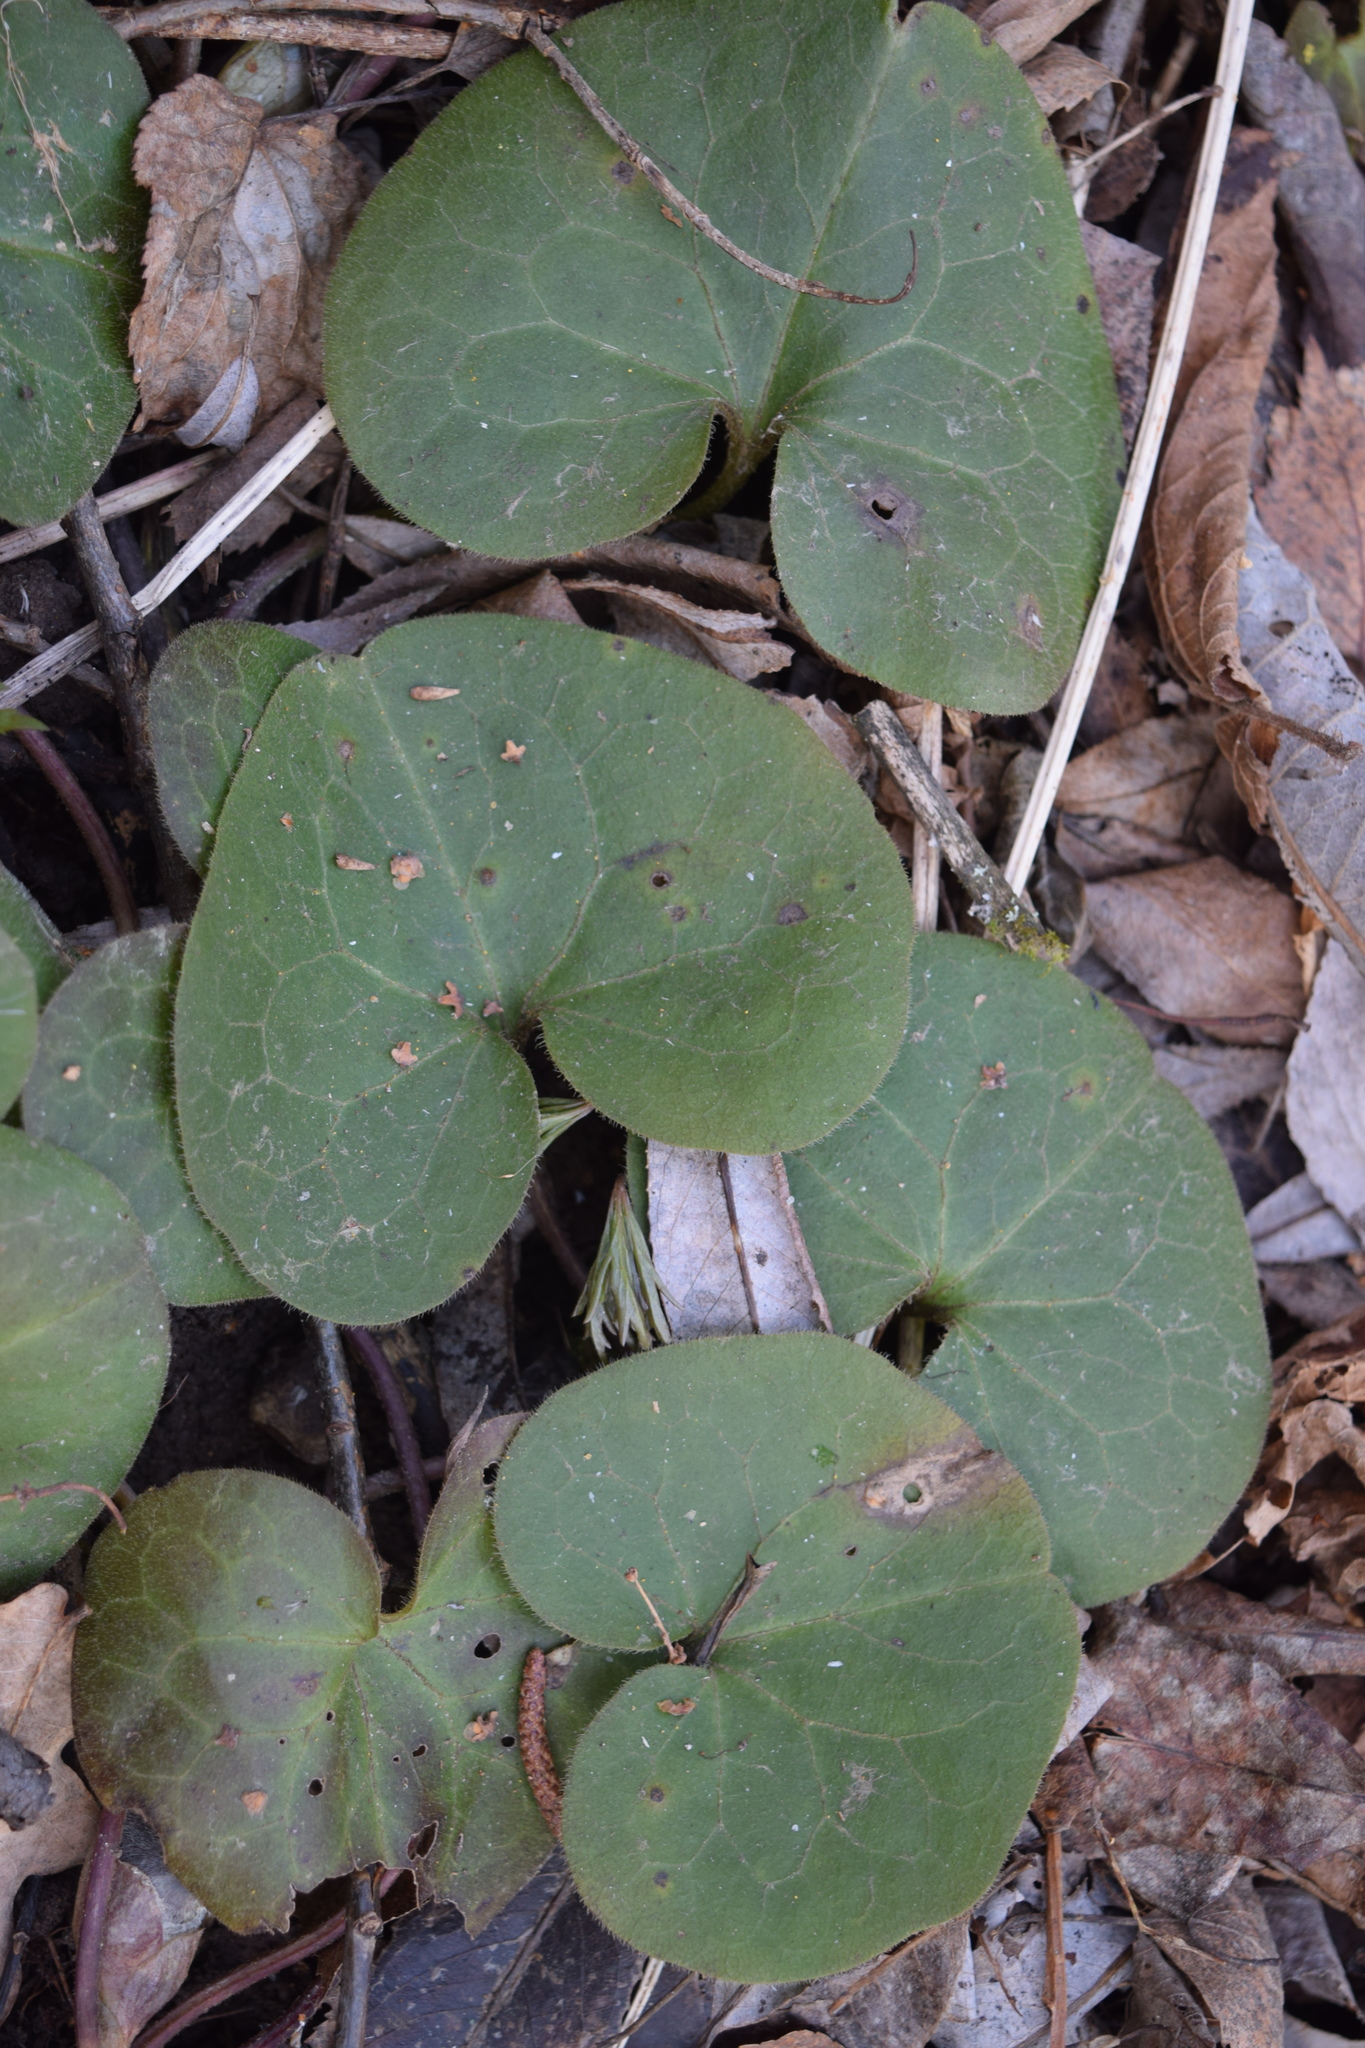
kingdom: Plantae
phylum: Tracheophyta
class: Magnoliopsida
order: Piperales
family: Aristolochiaceae
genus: Asarum
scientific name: Asarum europaeum
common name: Asarabacca
